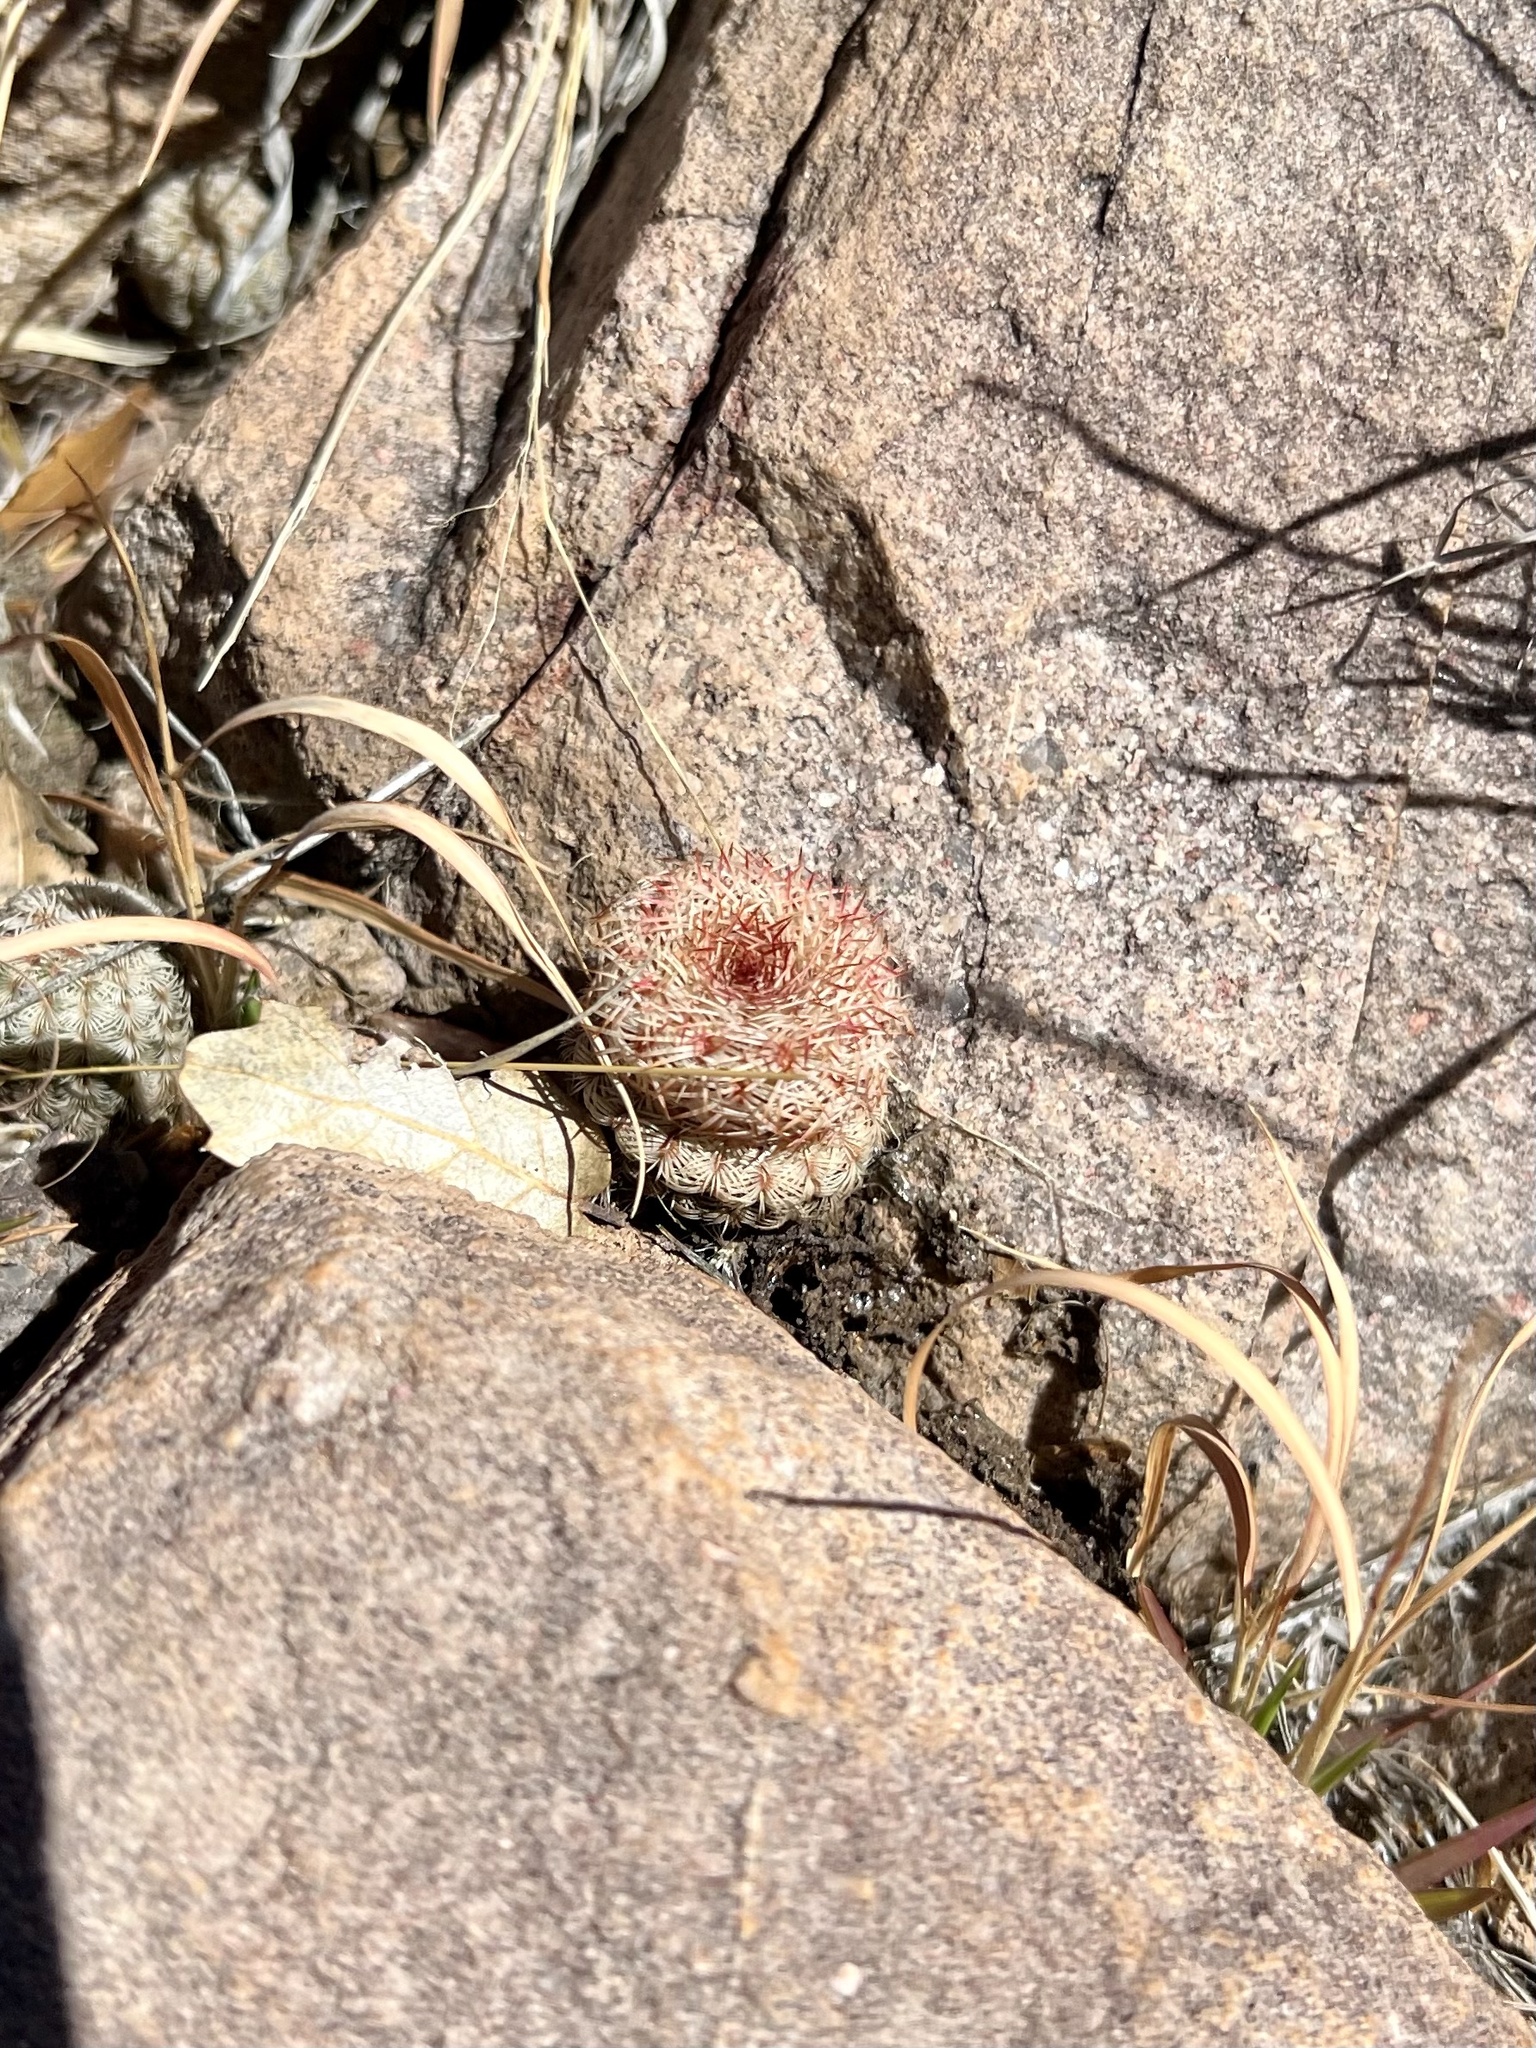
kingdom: Plantae
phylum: Tracheophyta
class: Magnoliopsida
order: Caryophyllales
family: Cactaceae
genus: Echinocereus
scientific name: Echinocereus rigidissimus
